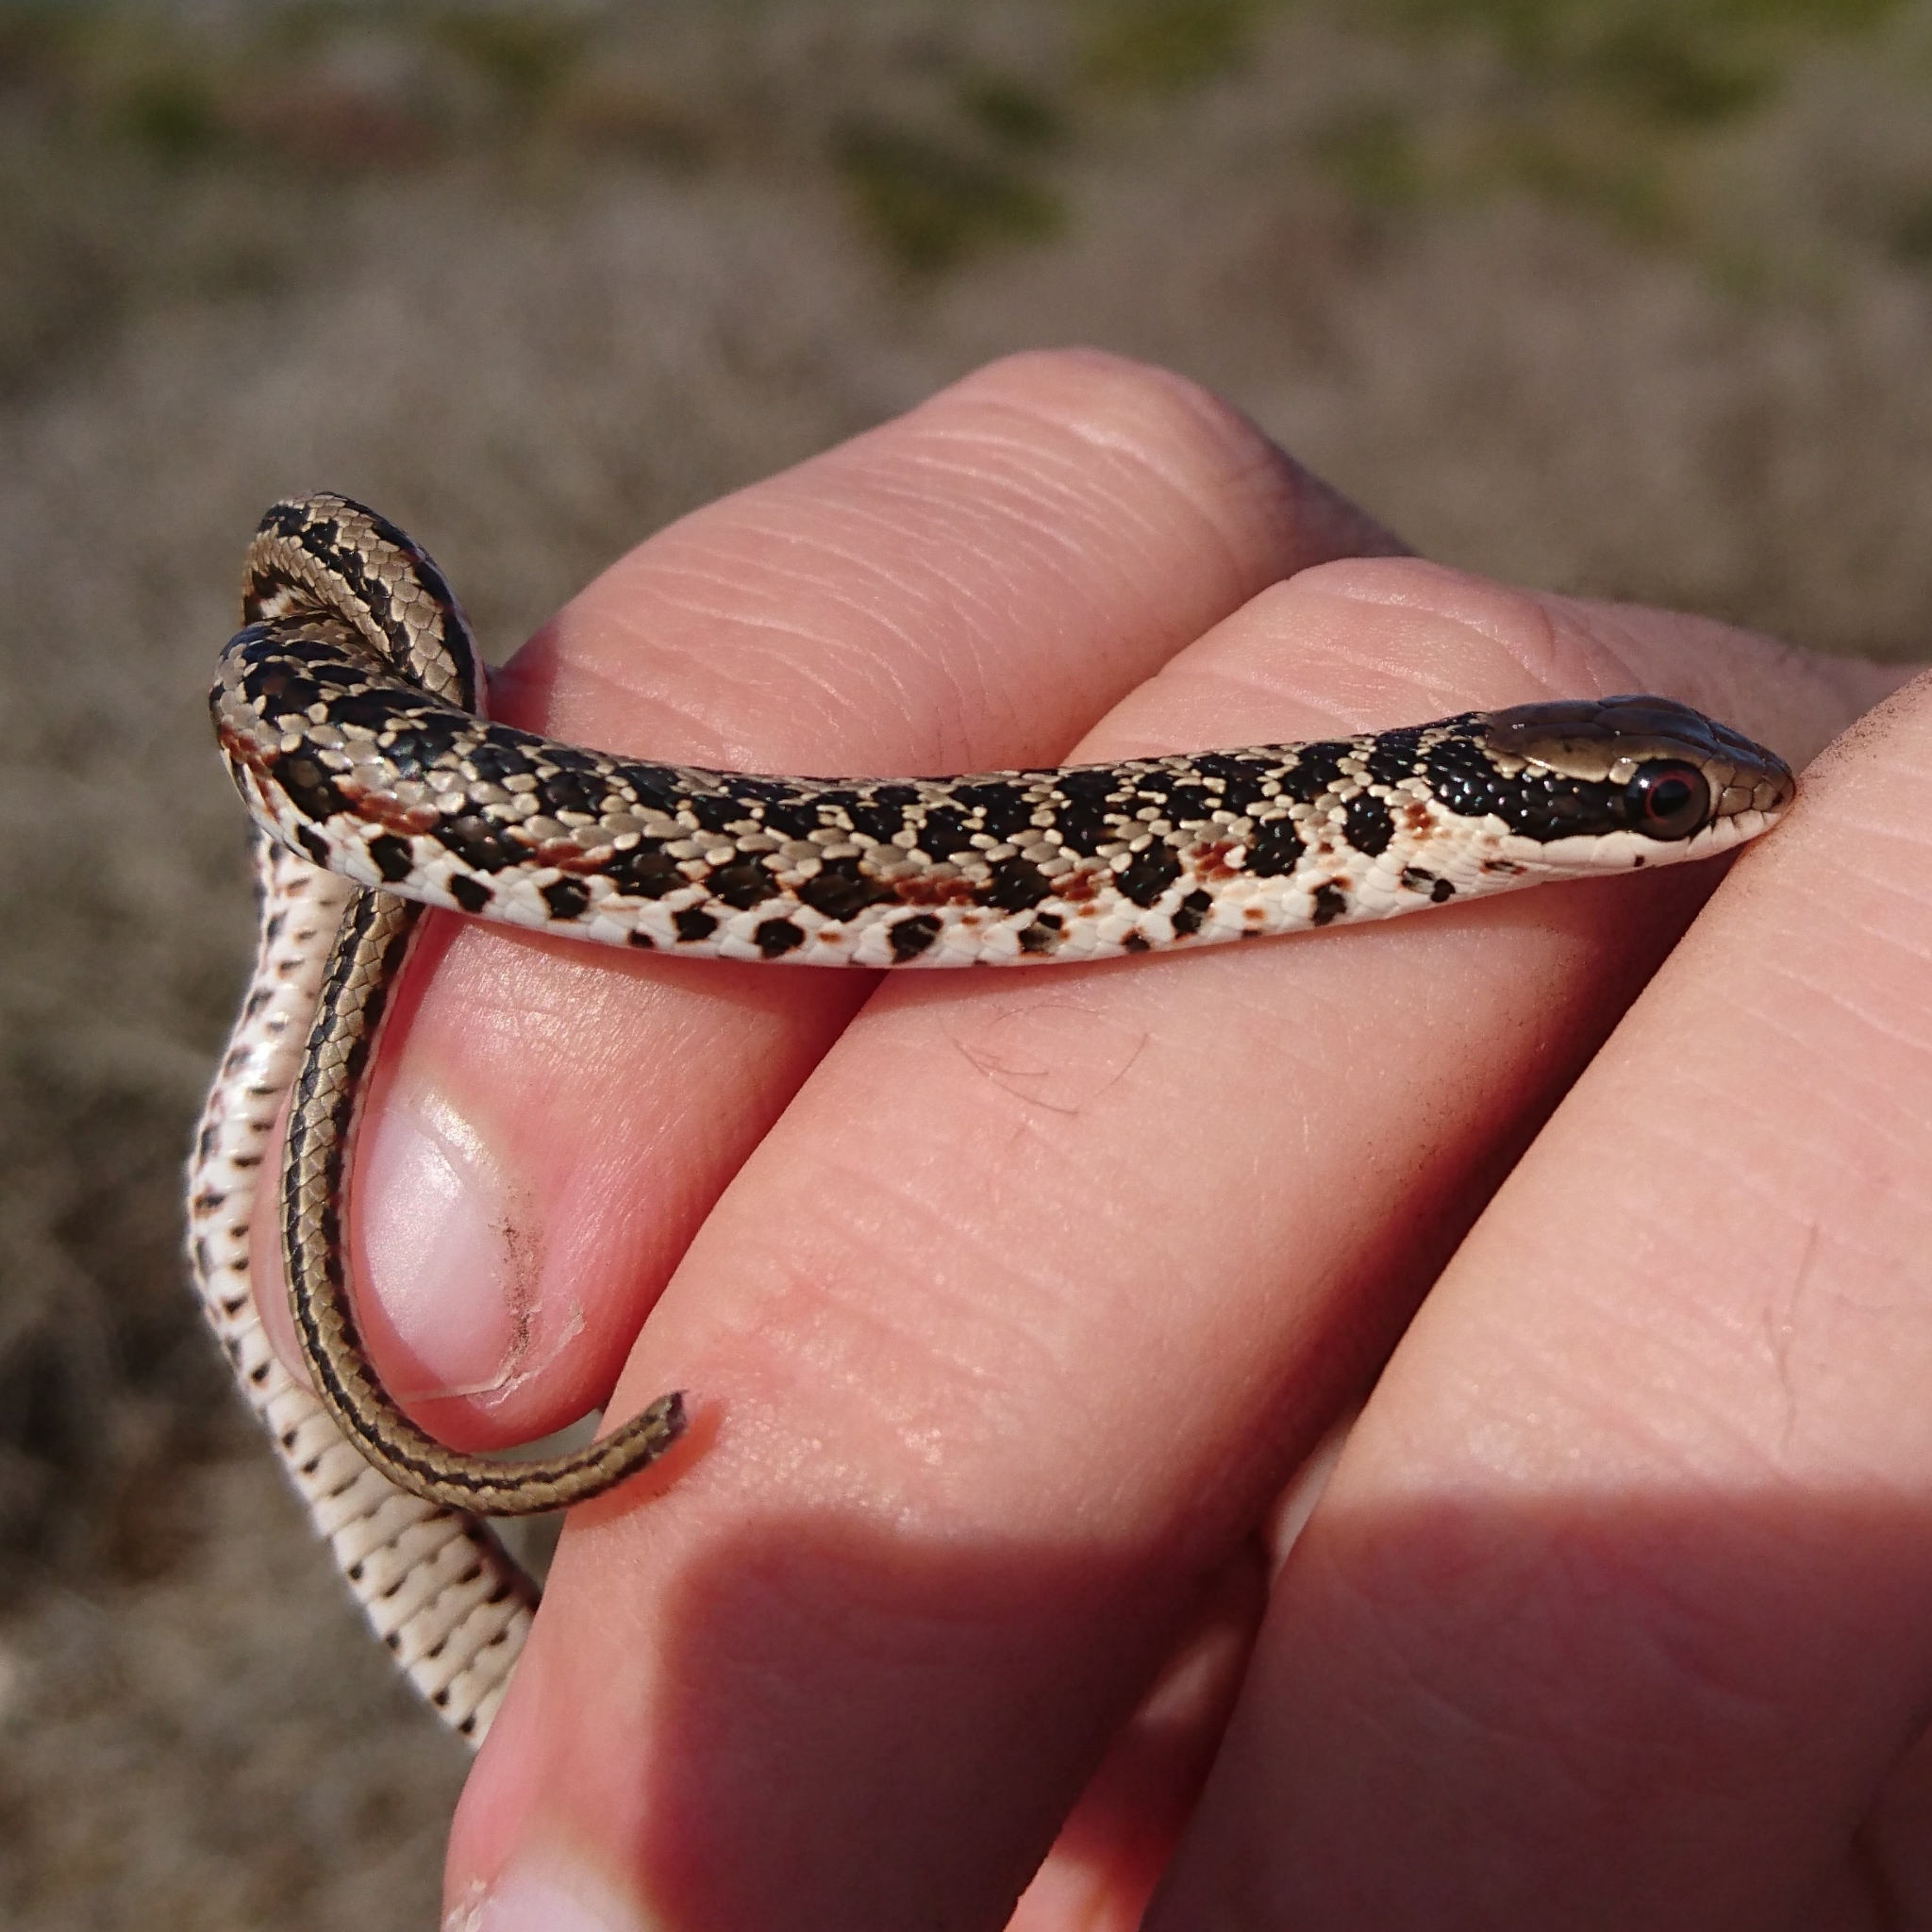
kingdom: Animalia
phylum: Chordata
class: Squamata
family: Psammophiidae
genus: Psammophylax
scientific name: Psammophylax rhombeatus
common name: Rhombic skaapsteker
